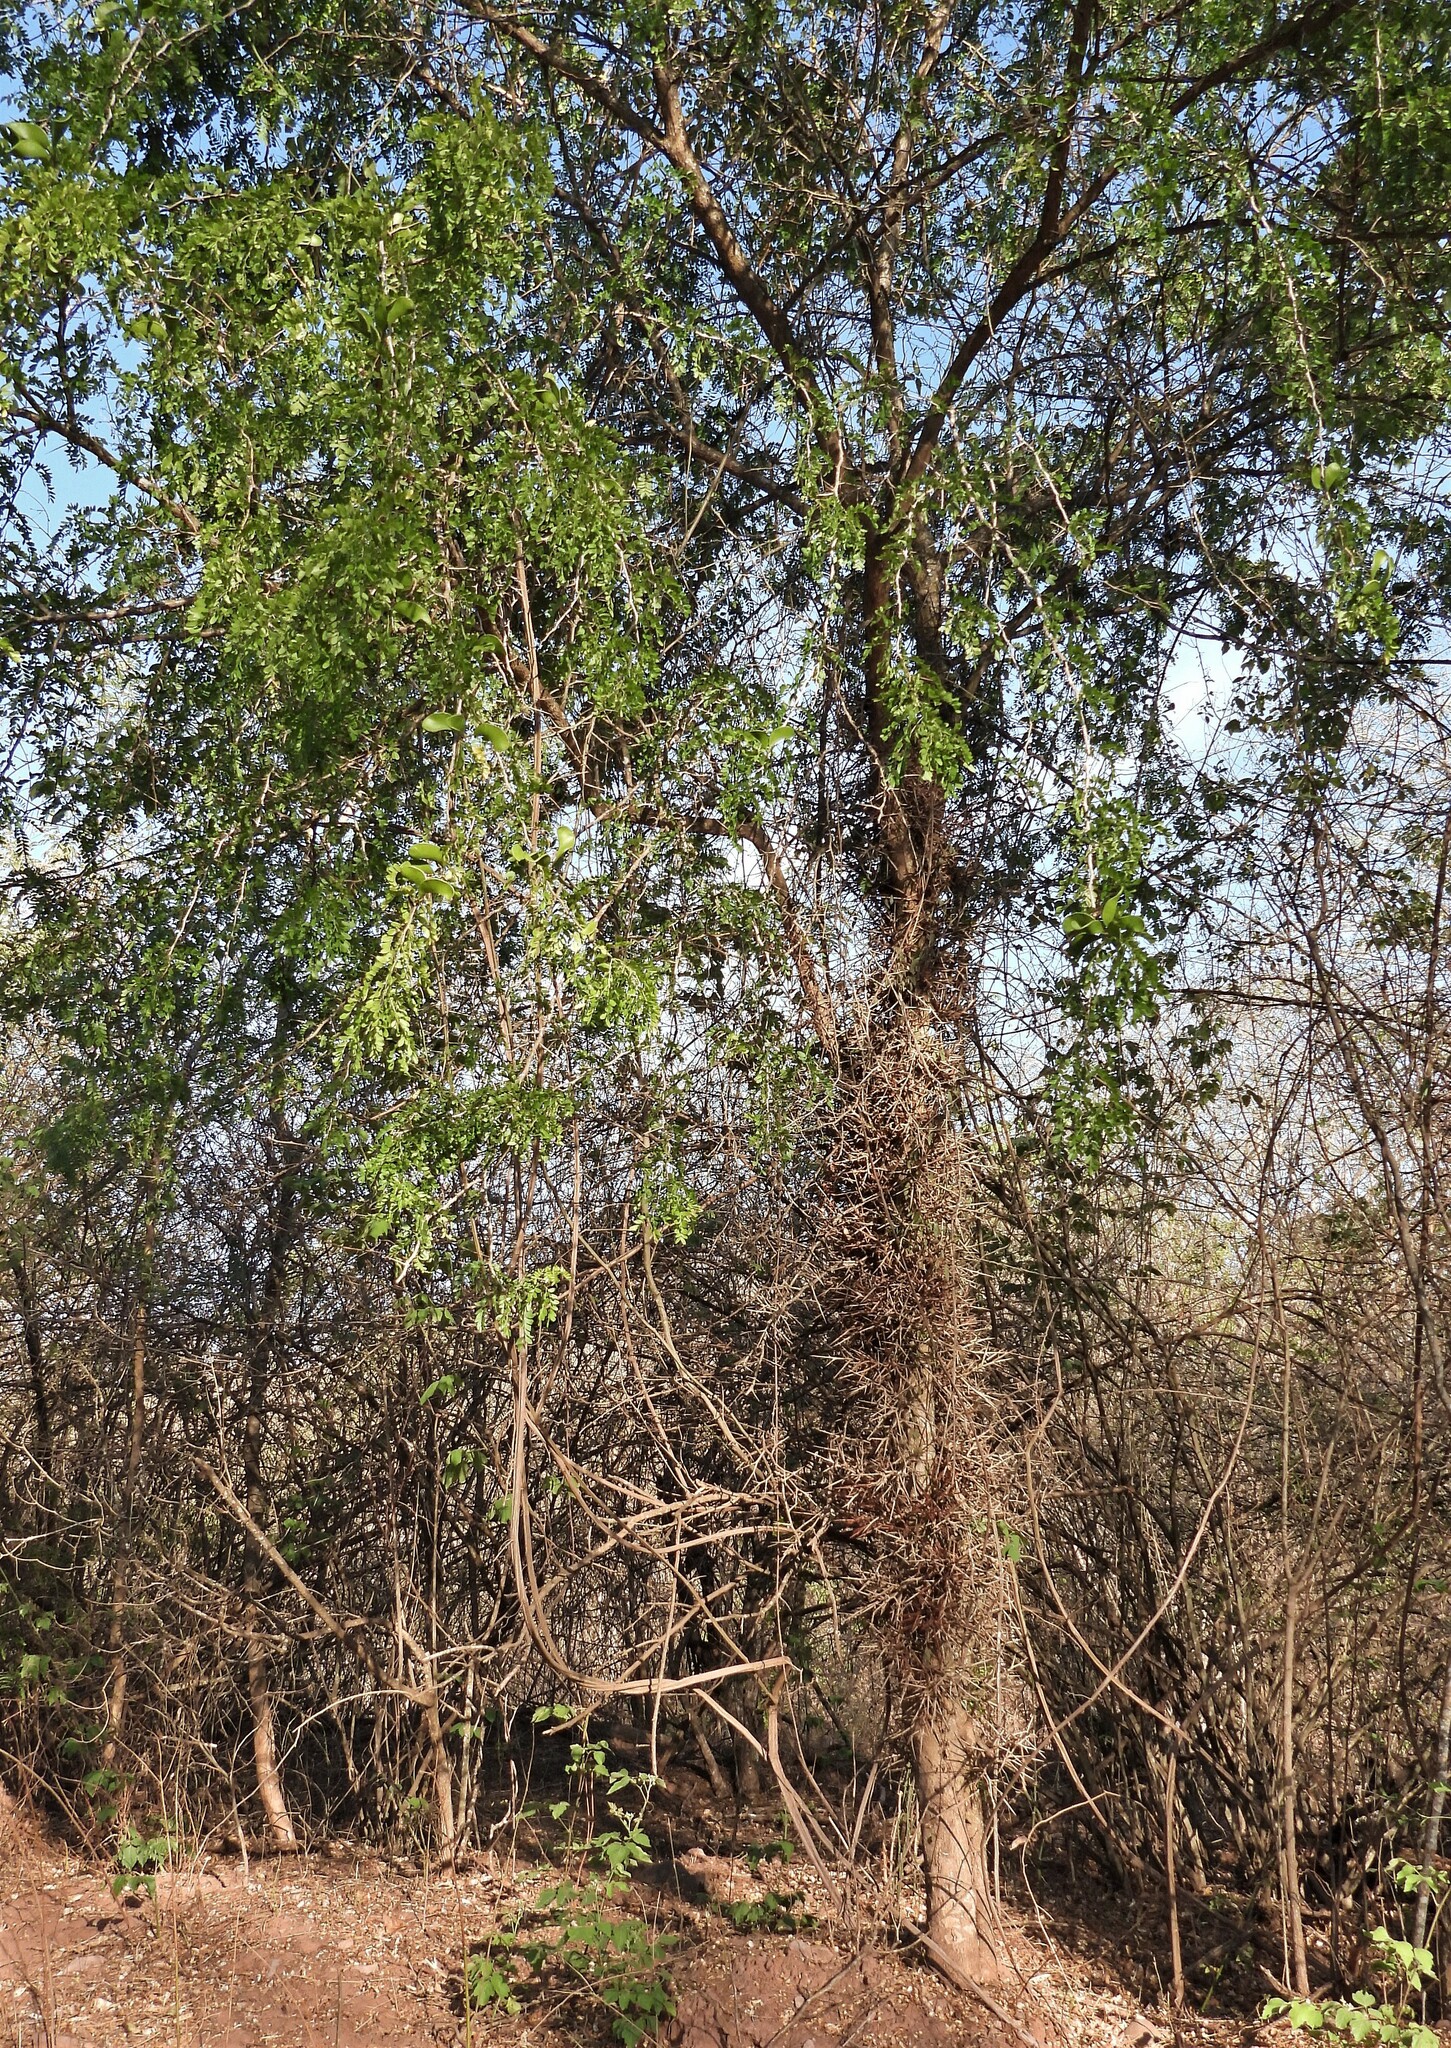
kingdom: Plantae
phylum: Tracheophyta
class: Magnoliopsida
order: Fabales
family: Fabaceae
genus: Gleditsia
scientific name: Gleditsia amorphoides
